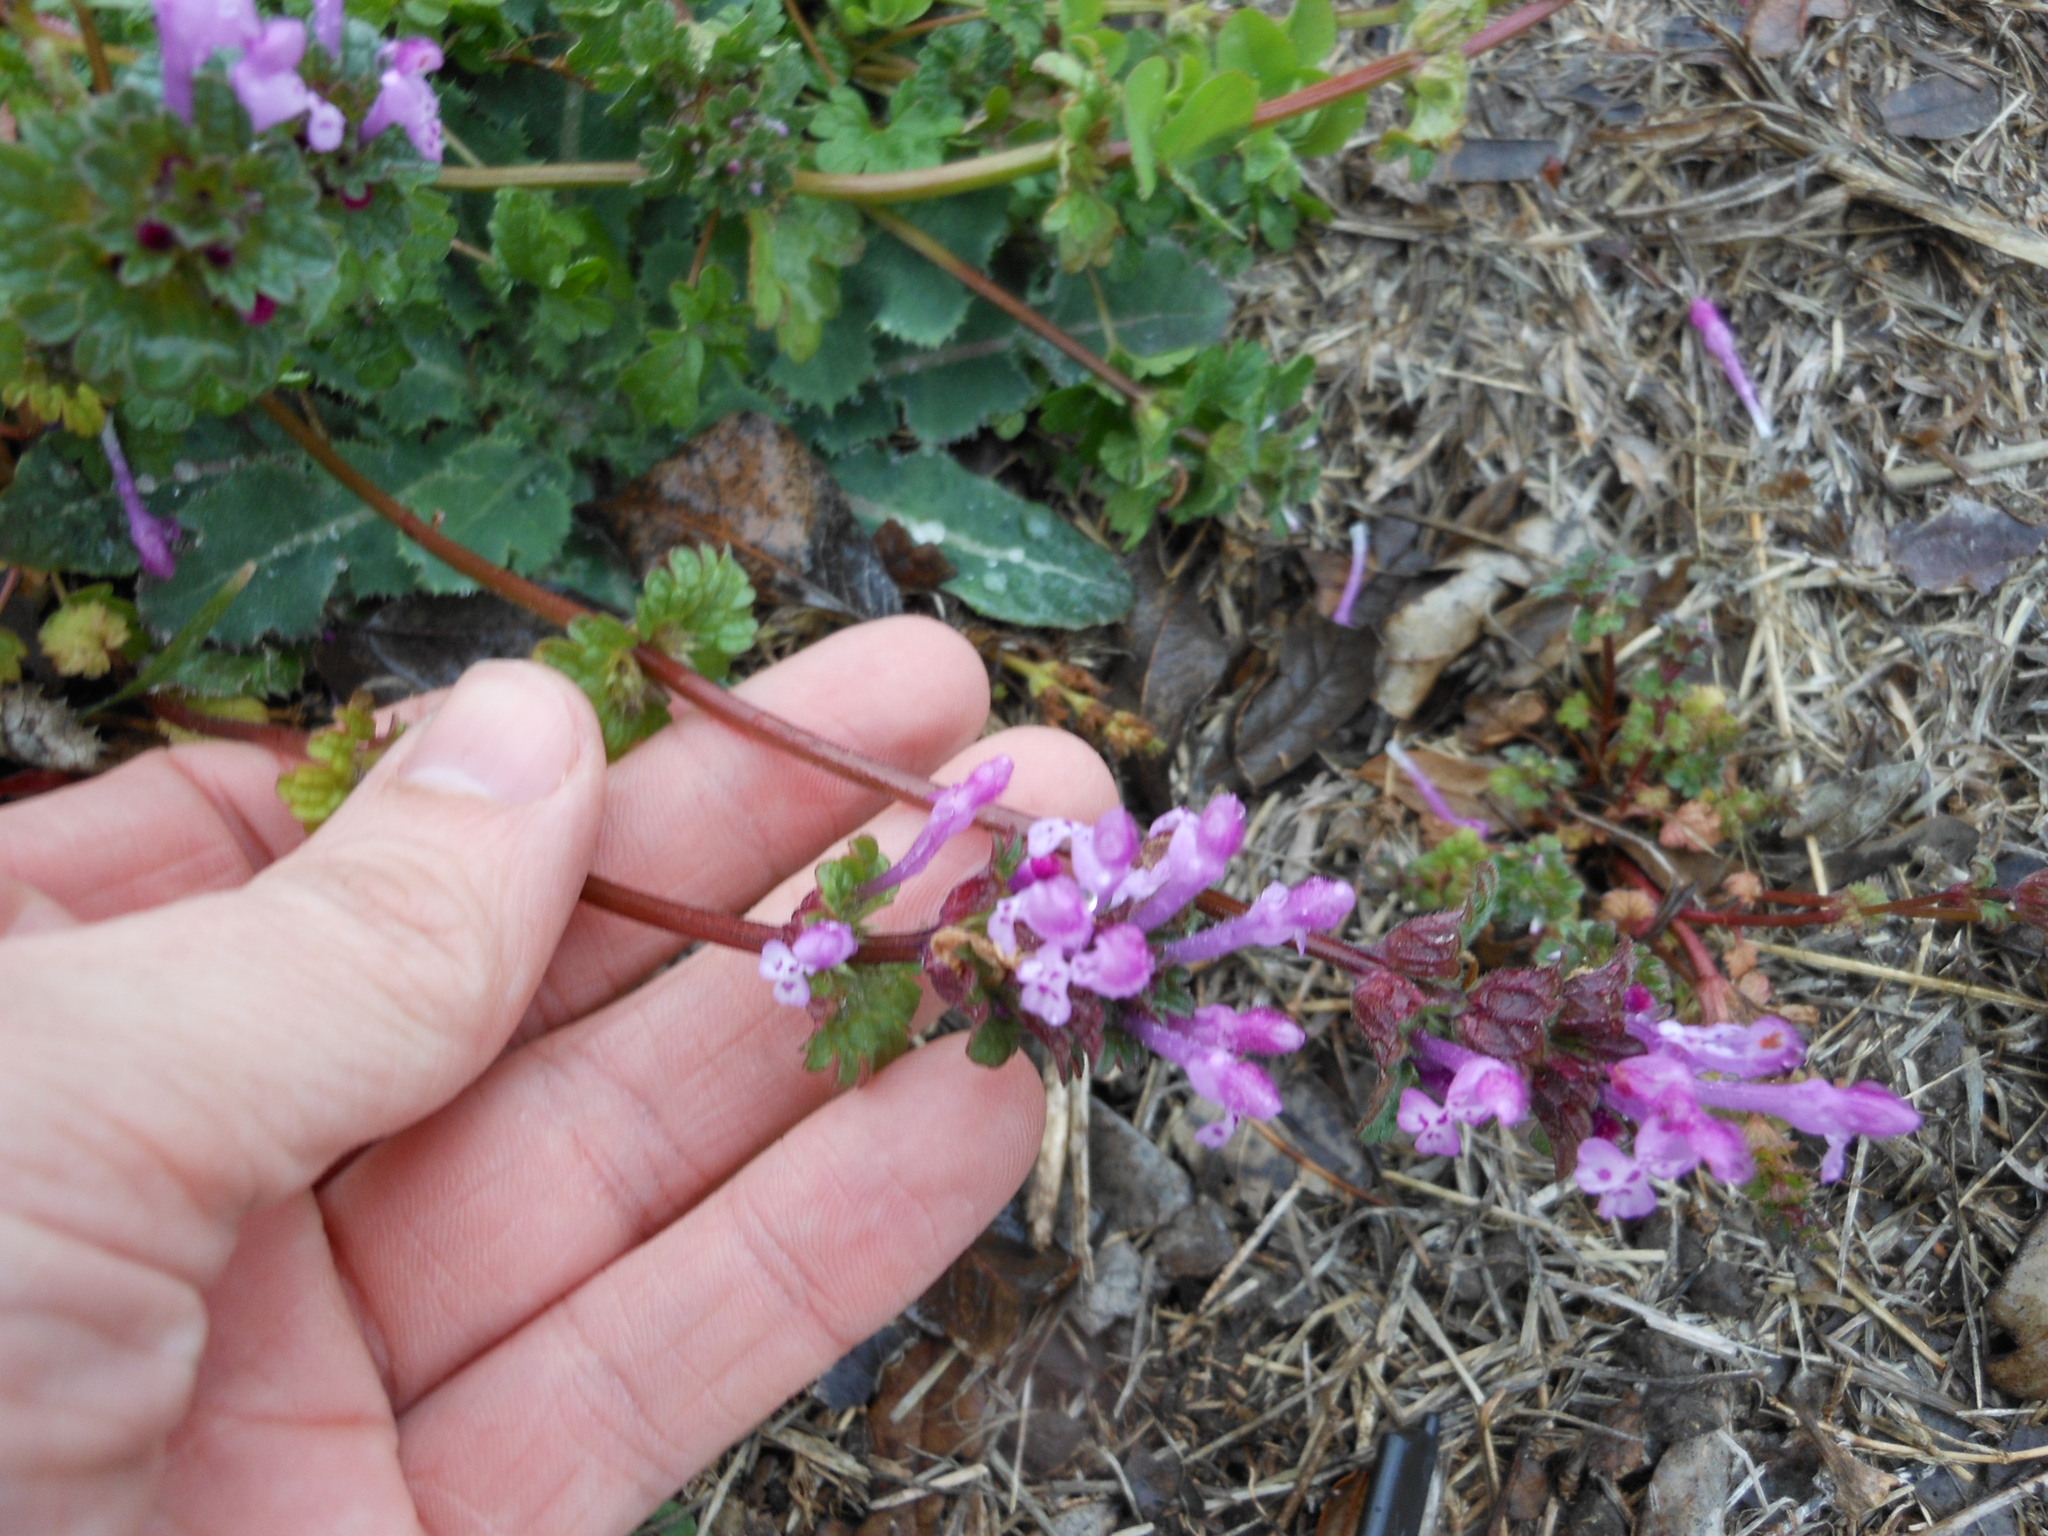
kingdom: Plantae
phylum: Tracheophyta
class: Magnoliopsida
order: Lamiales
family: Lamiaceae
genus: Lamium
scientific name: Lamium amplexicaule
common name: Henbit dead-nettle
